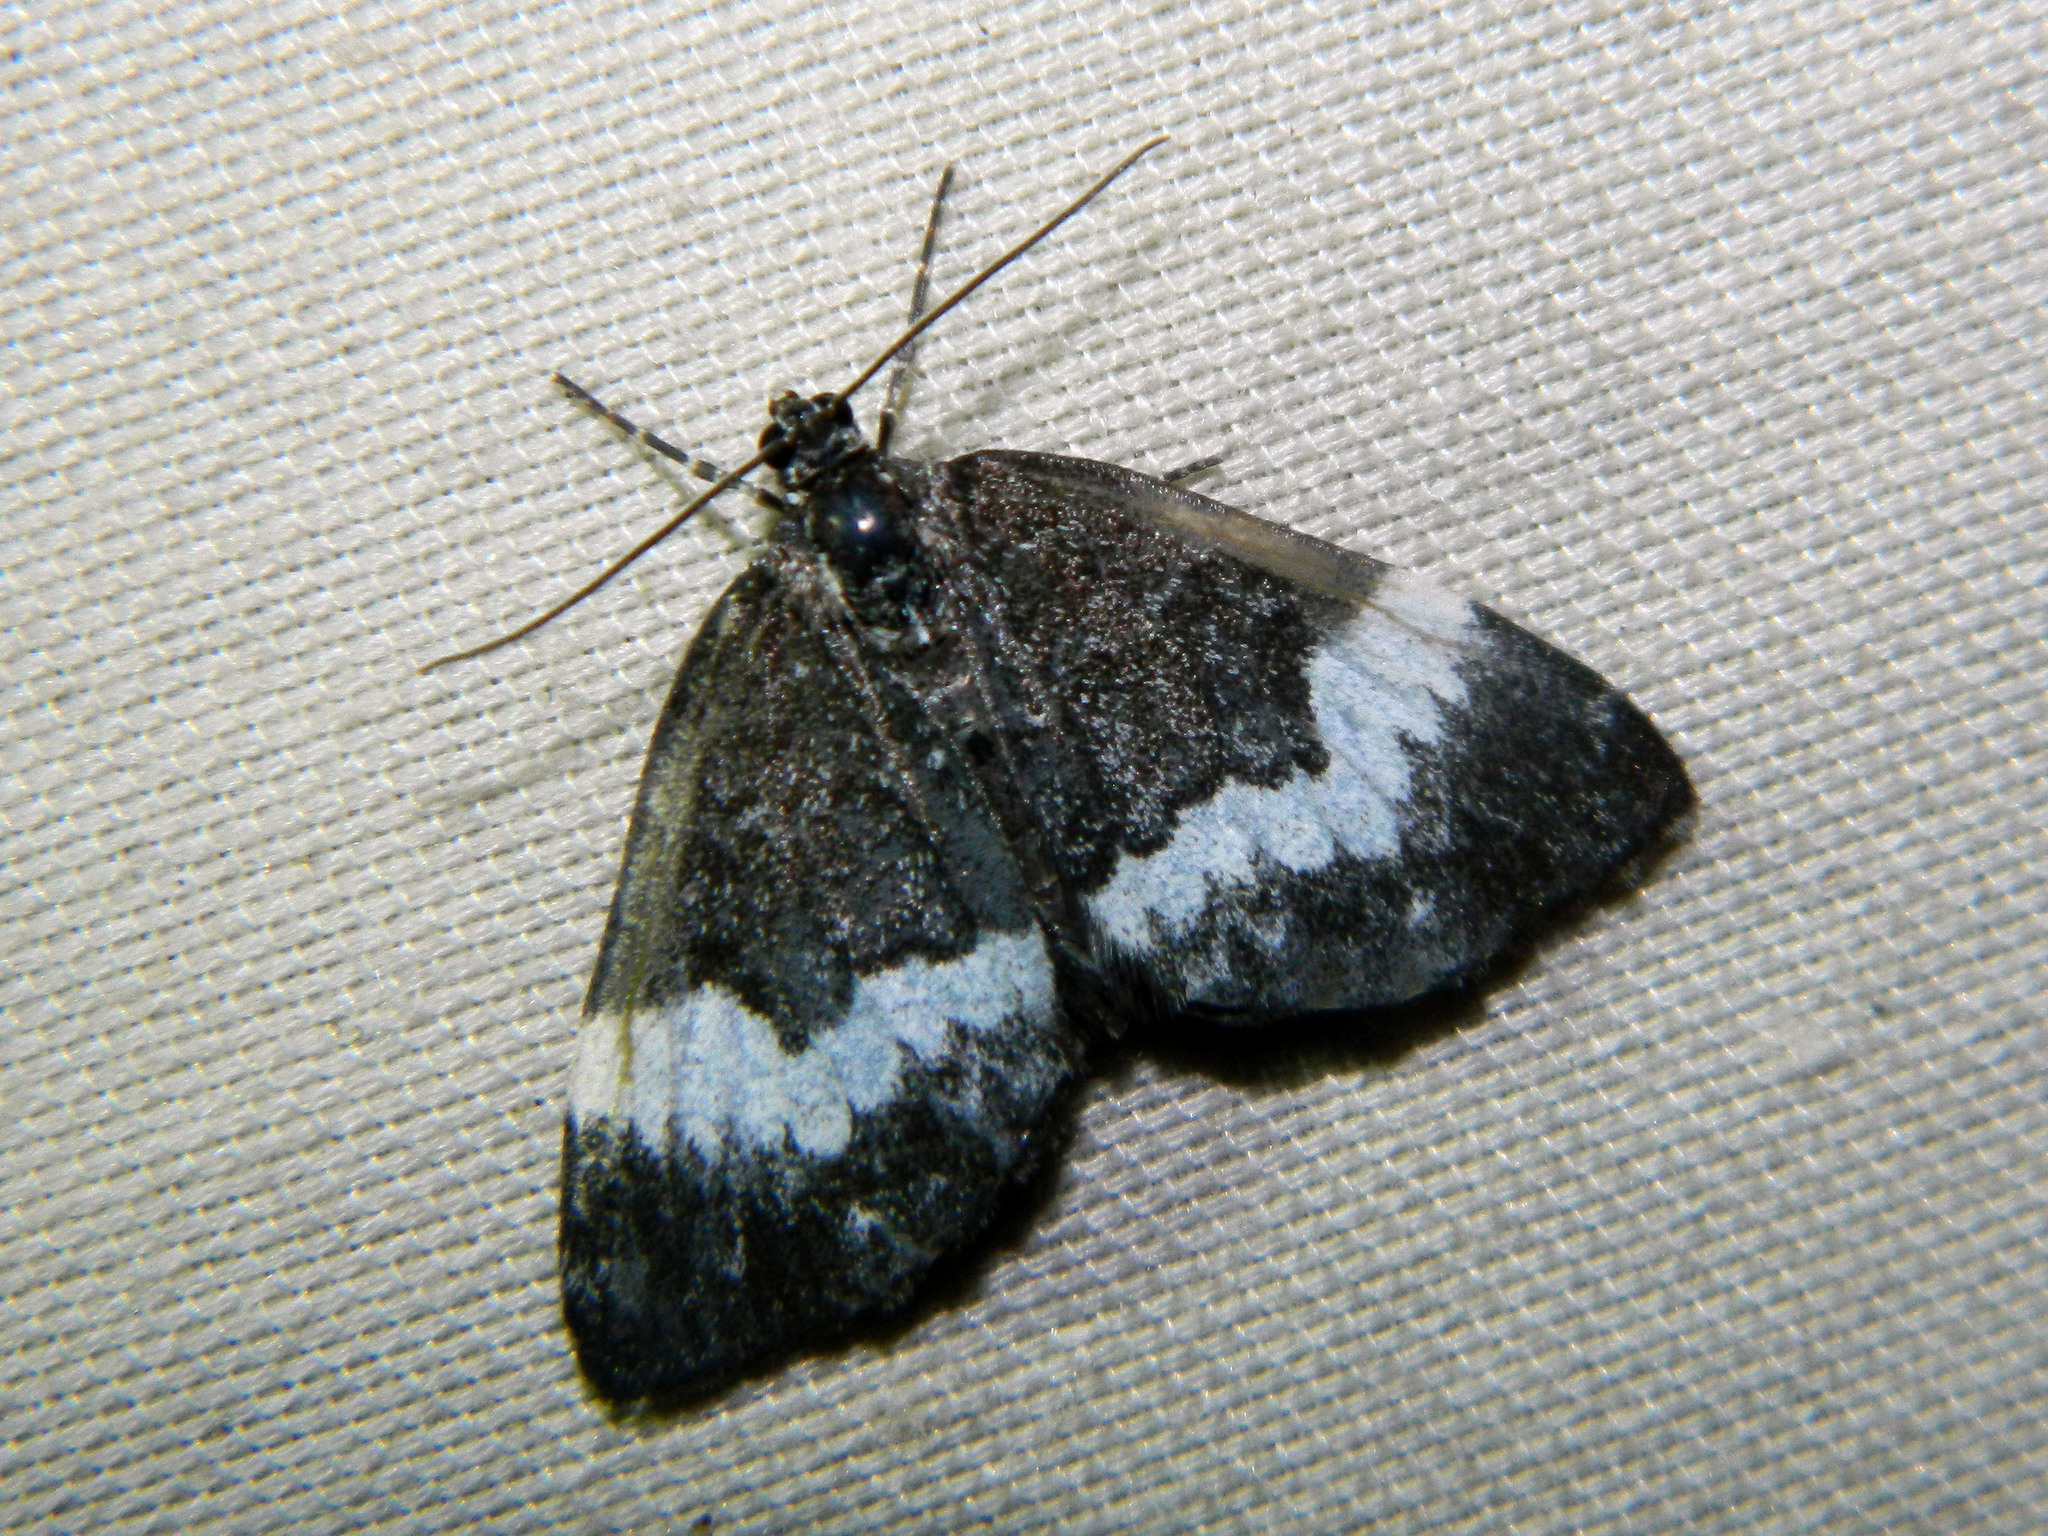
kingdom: Animalia
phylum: Arthropoda
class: Insecta
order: Lepidoptera
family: Geometridae
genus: Spargania
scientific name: Spargania luctuata
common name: White-banded carpet
